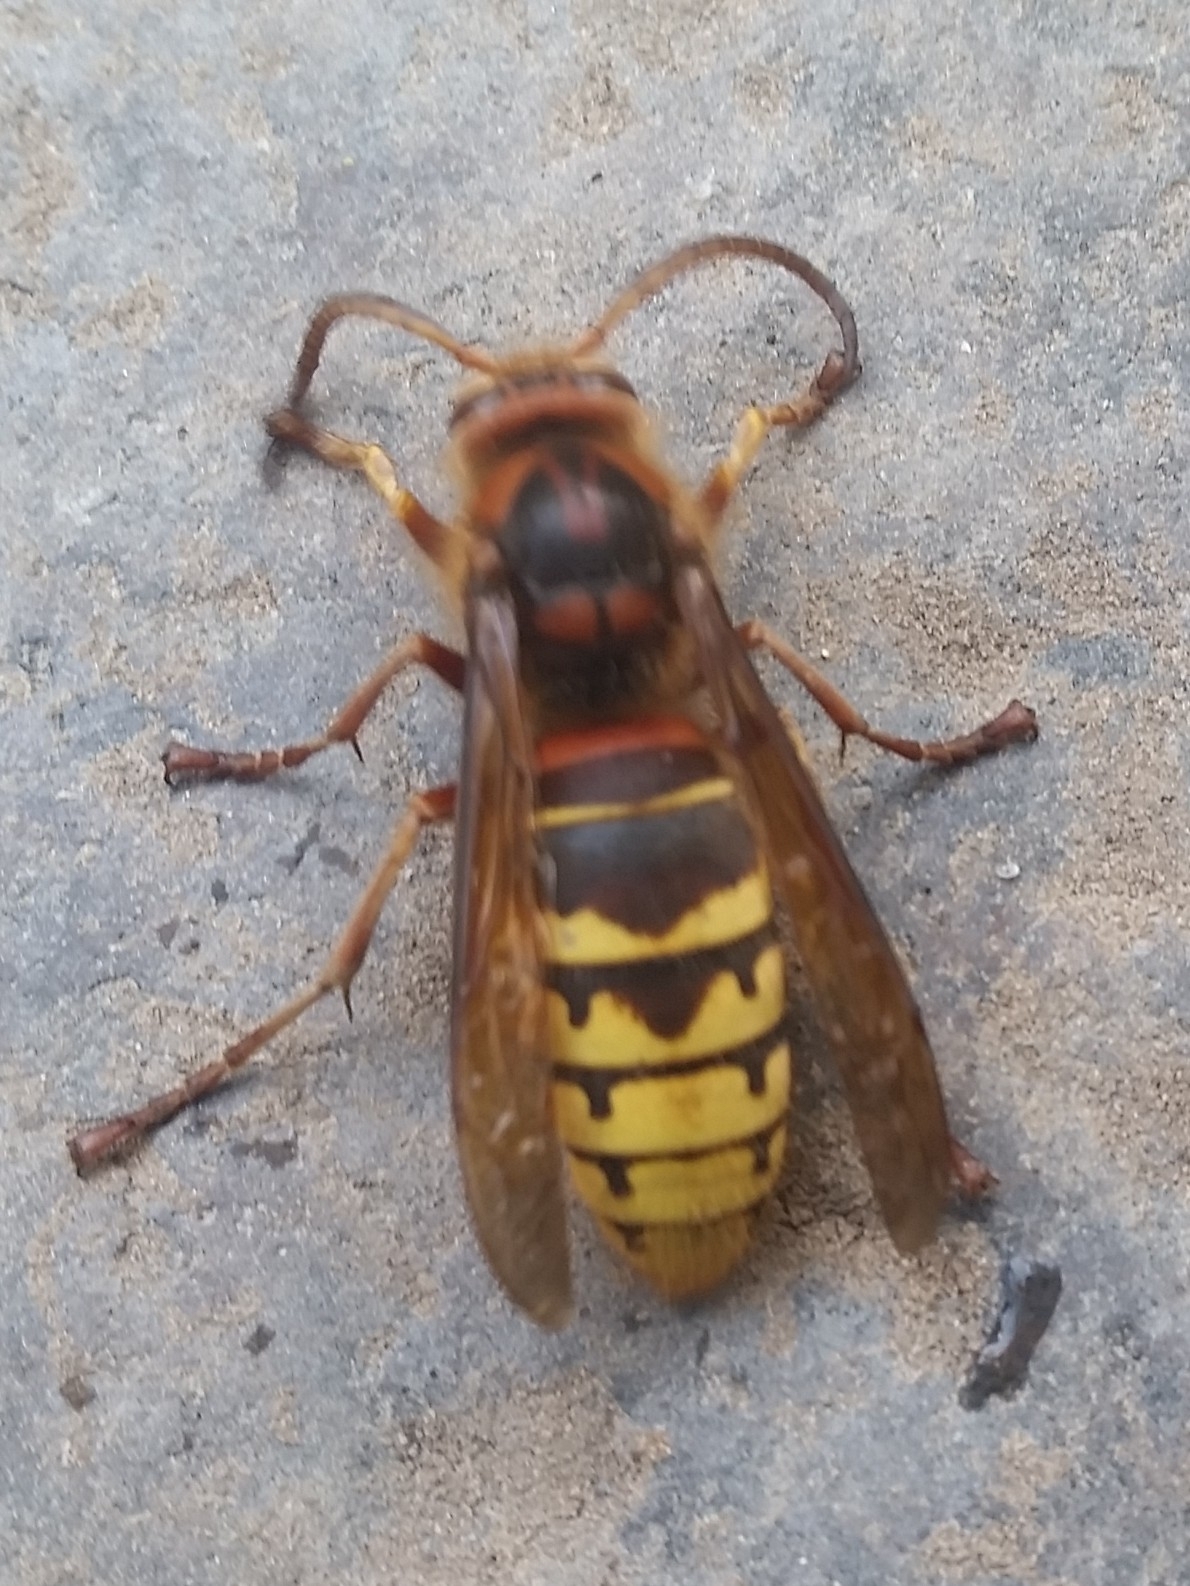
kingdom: Animalia
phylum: Arthropoda
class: Insecta
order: Hymenoptera
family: Vespidae
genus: Vespa
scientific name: Vespa crabro
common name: Hornet
